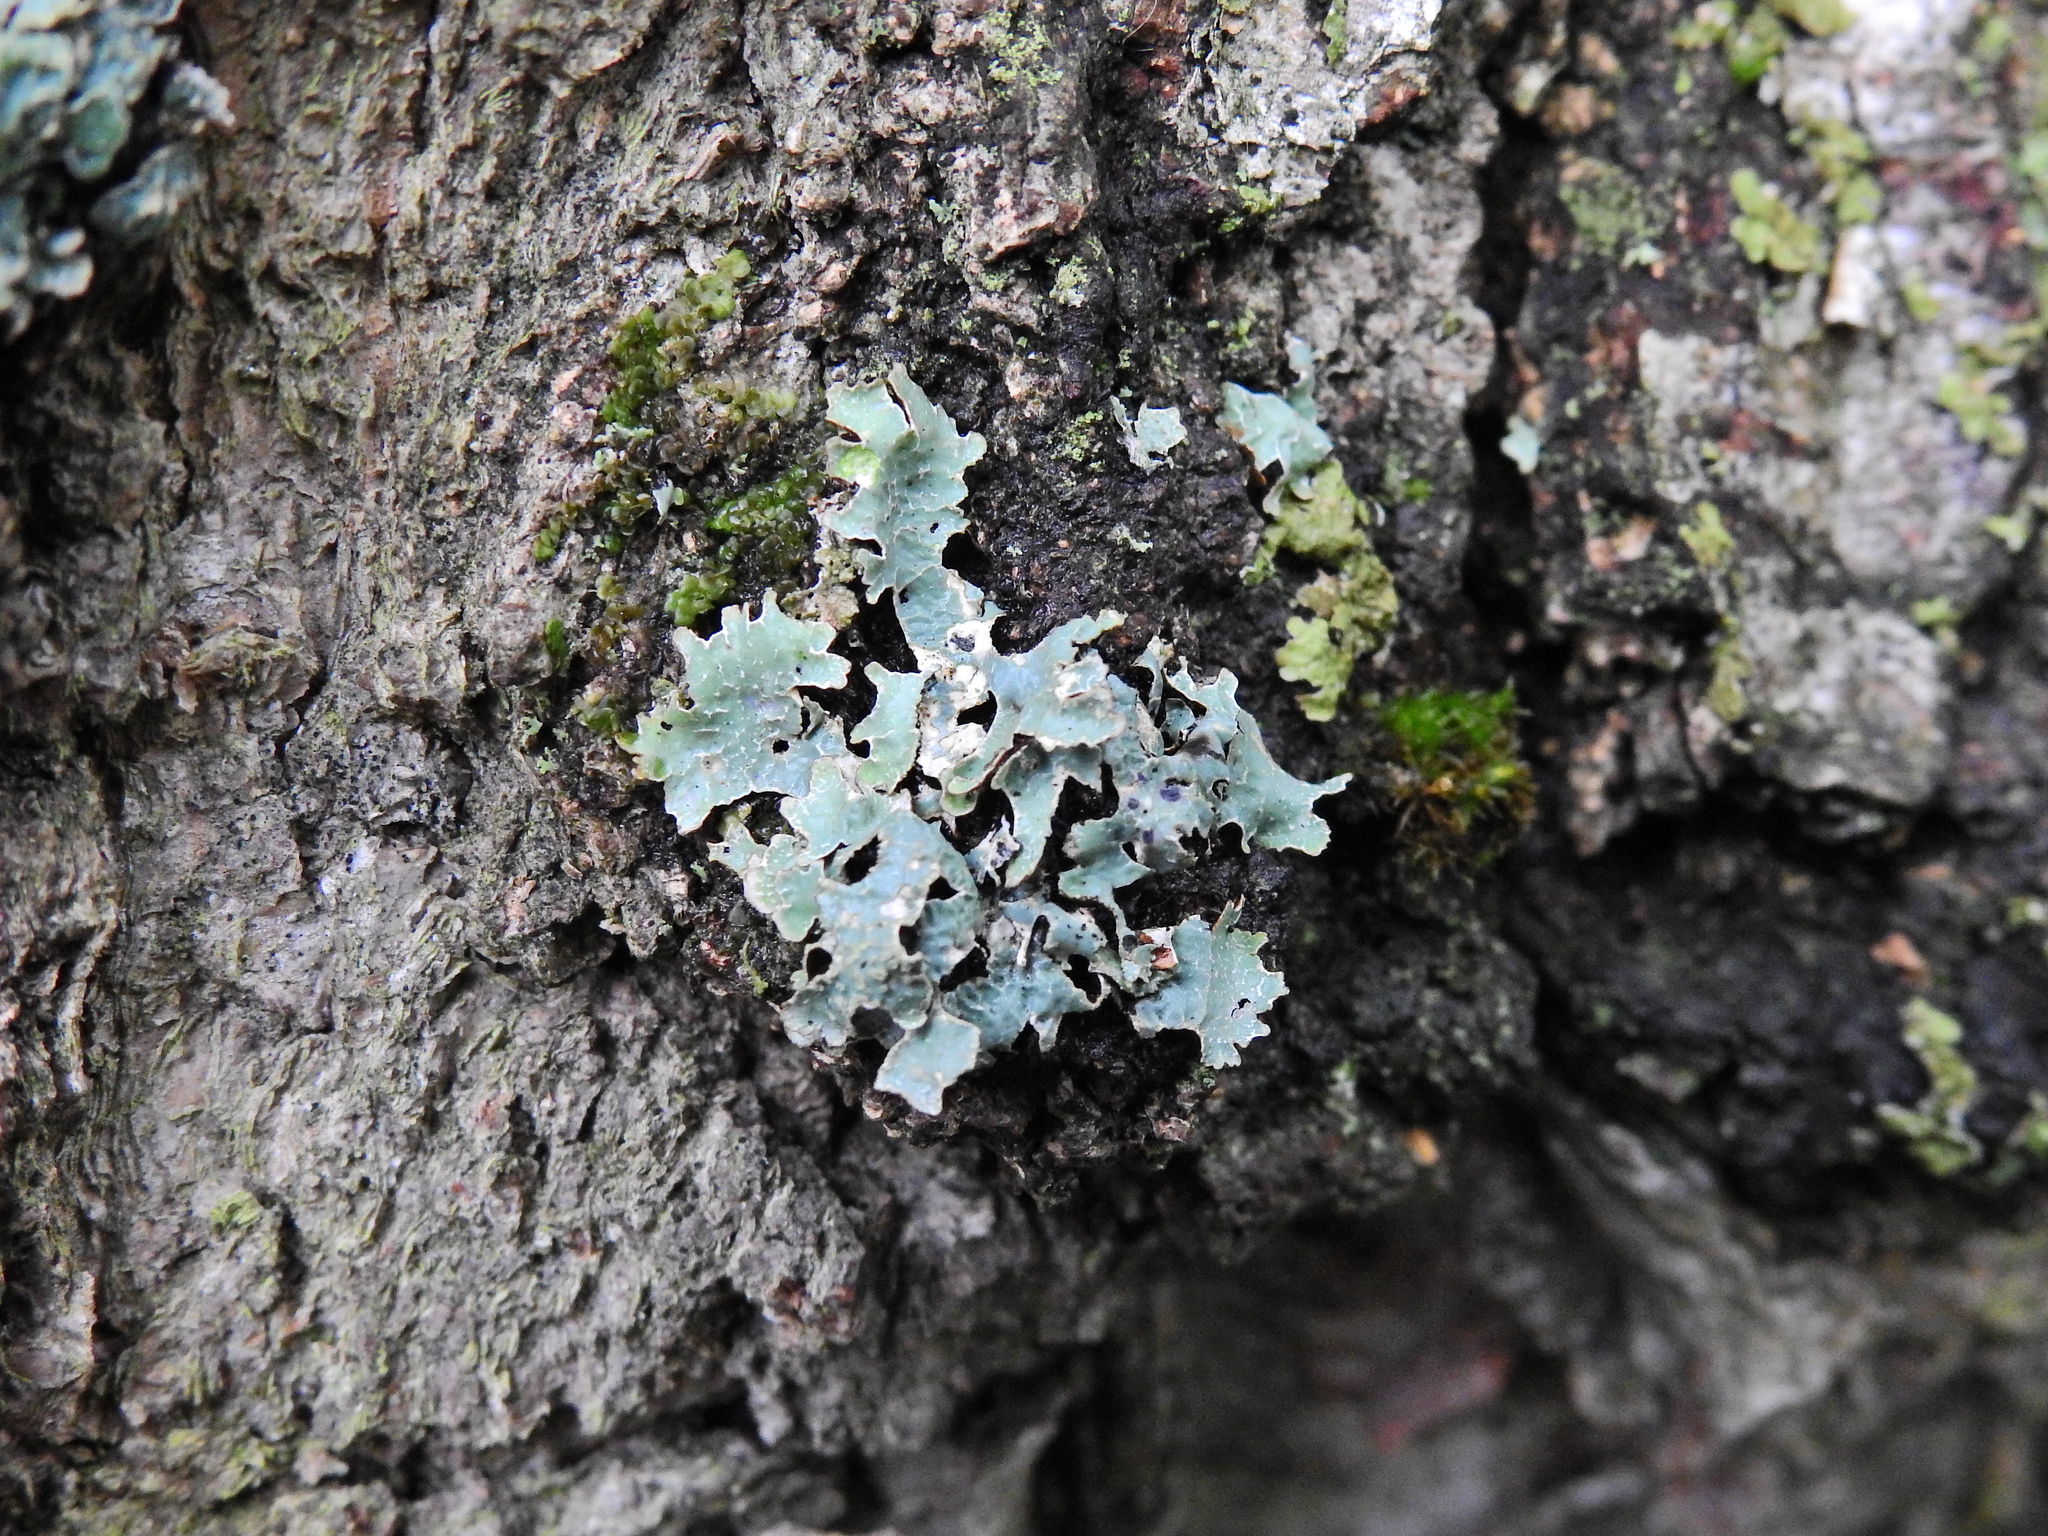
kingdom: Fungi
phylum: Ascomycota
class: Lecanoromycetes
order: Lecanorales
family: Parmeliaceae
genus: Parmelia
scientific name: Parmelia sulcata
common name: Netted shield lichen
